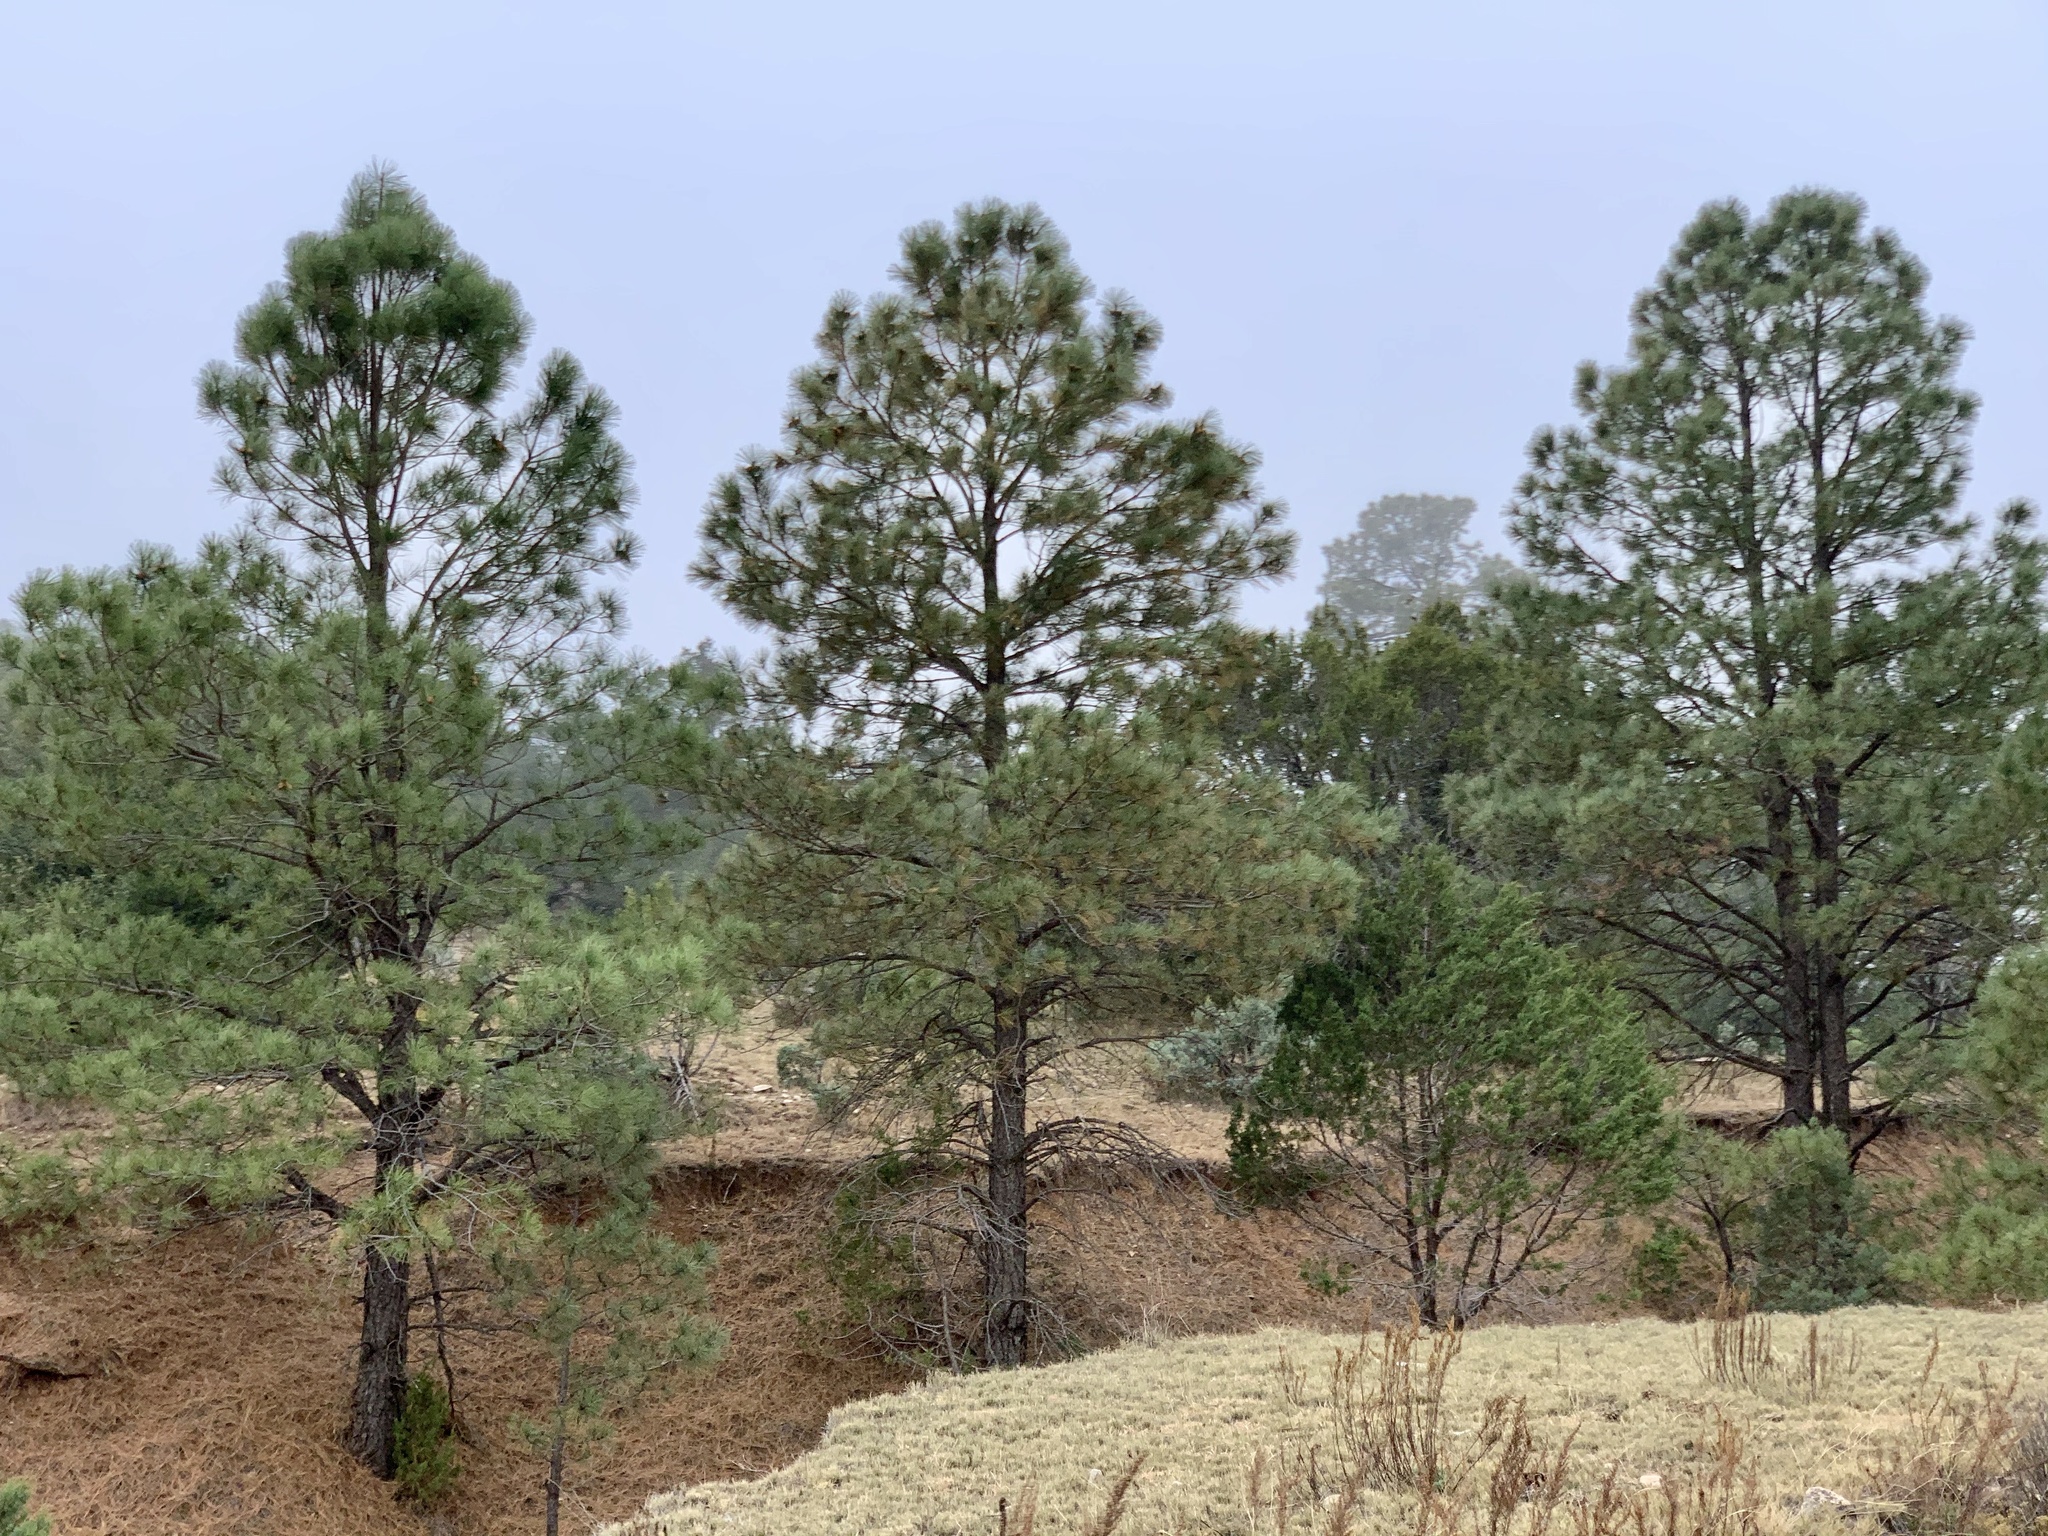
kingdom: Plantae
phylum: Tracheophyta
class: Pinopsida
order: Pinales
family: Pinaceae
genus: Pinus
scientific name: Pinus ponderosa
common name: Western yellow-pine
